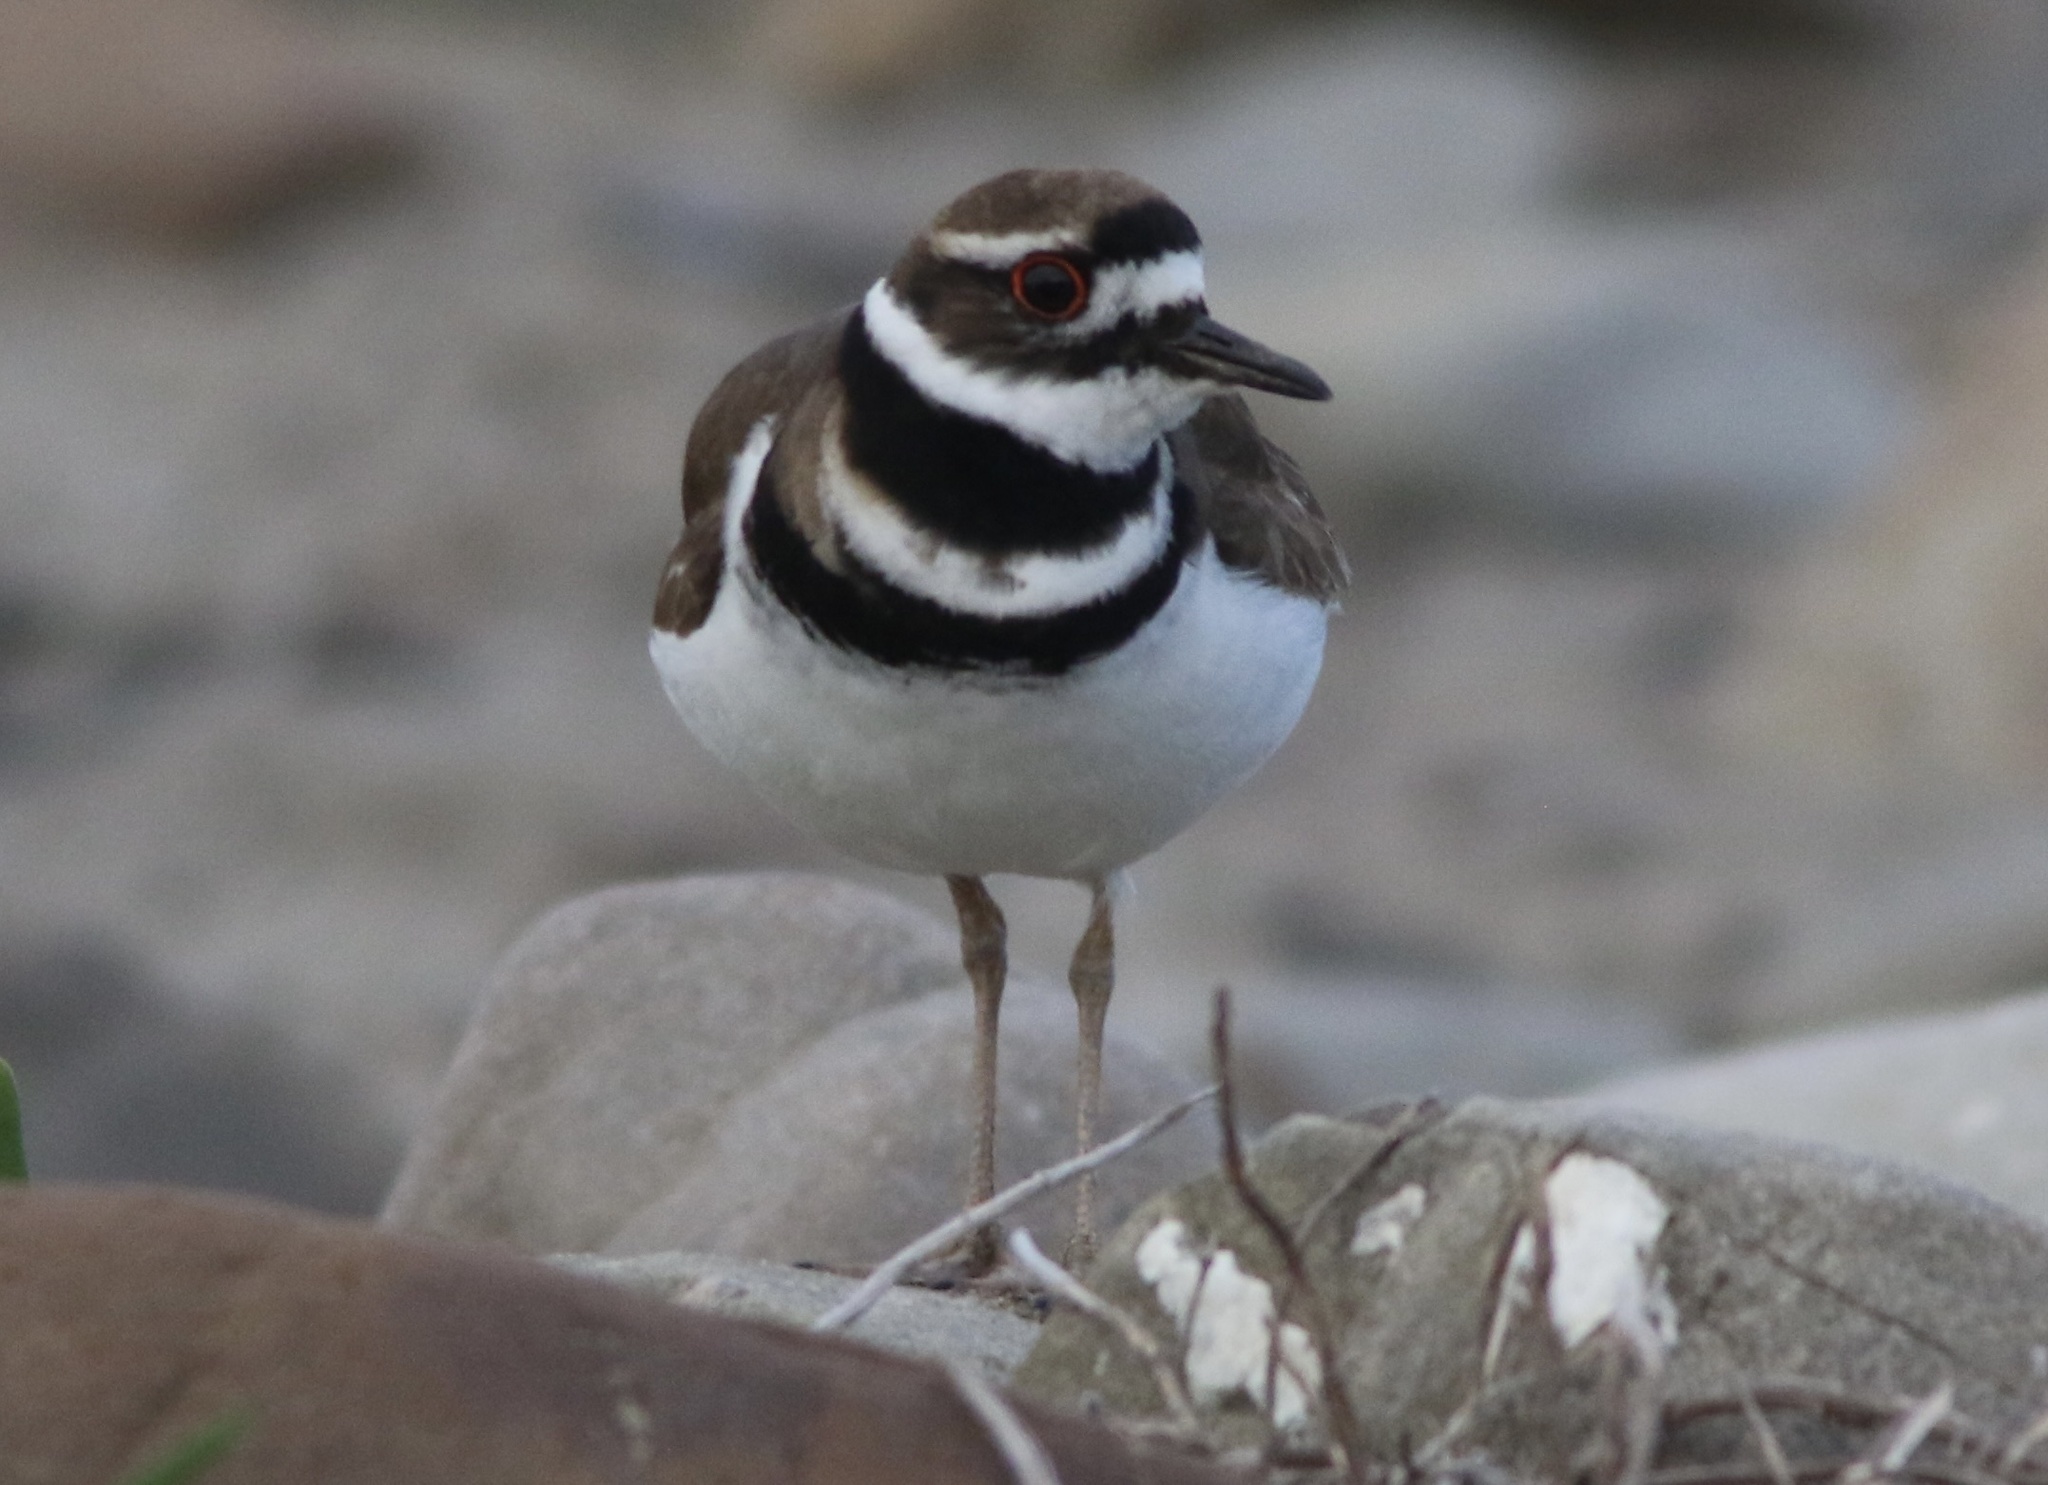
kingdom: Animalia
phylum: Chordata
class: Aves
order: Charadriiformes
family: Charadriidae
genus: Charadrius
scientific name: Charadrius vociferus
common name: Killdeer
